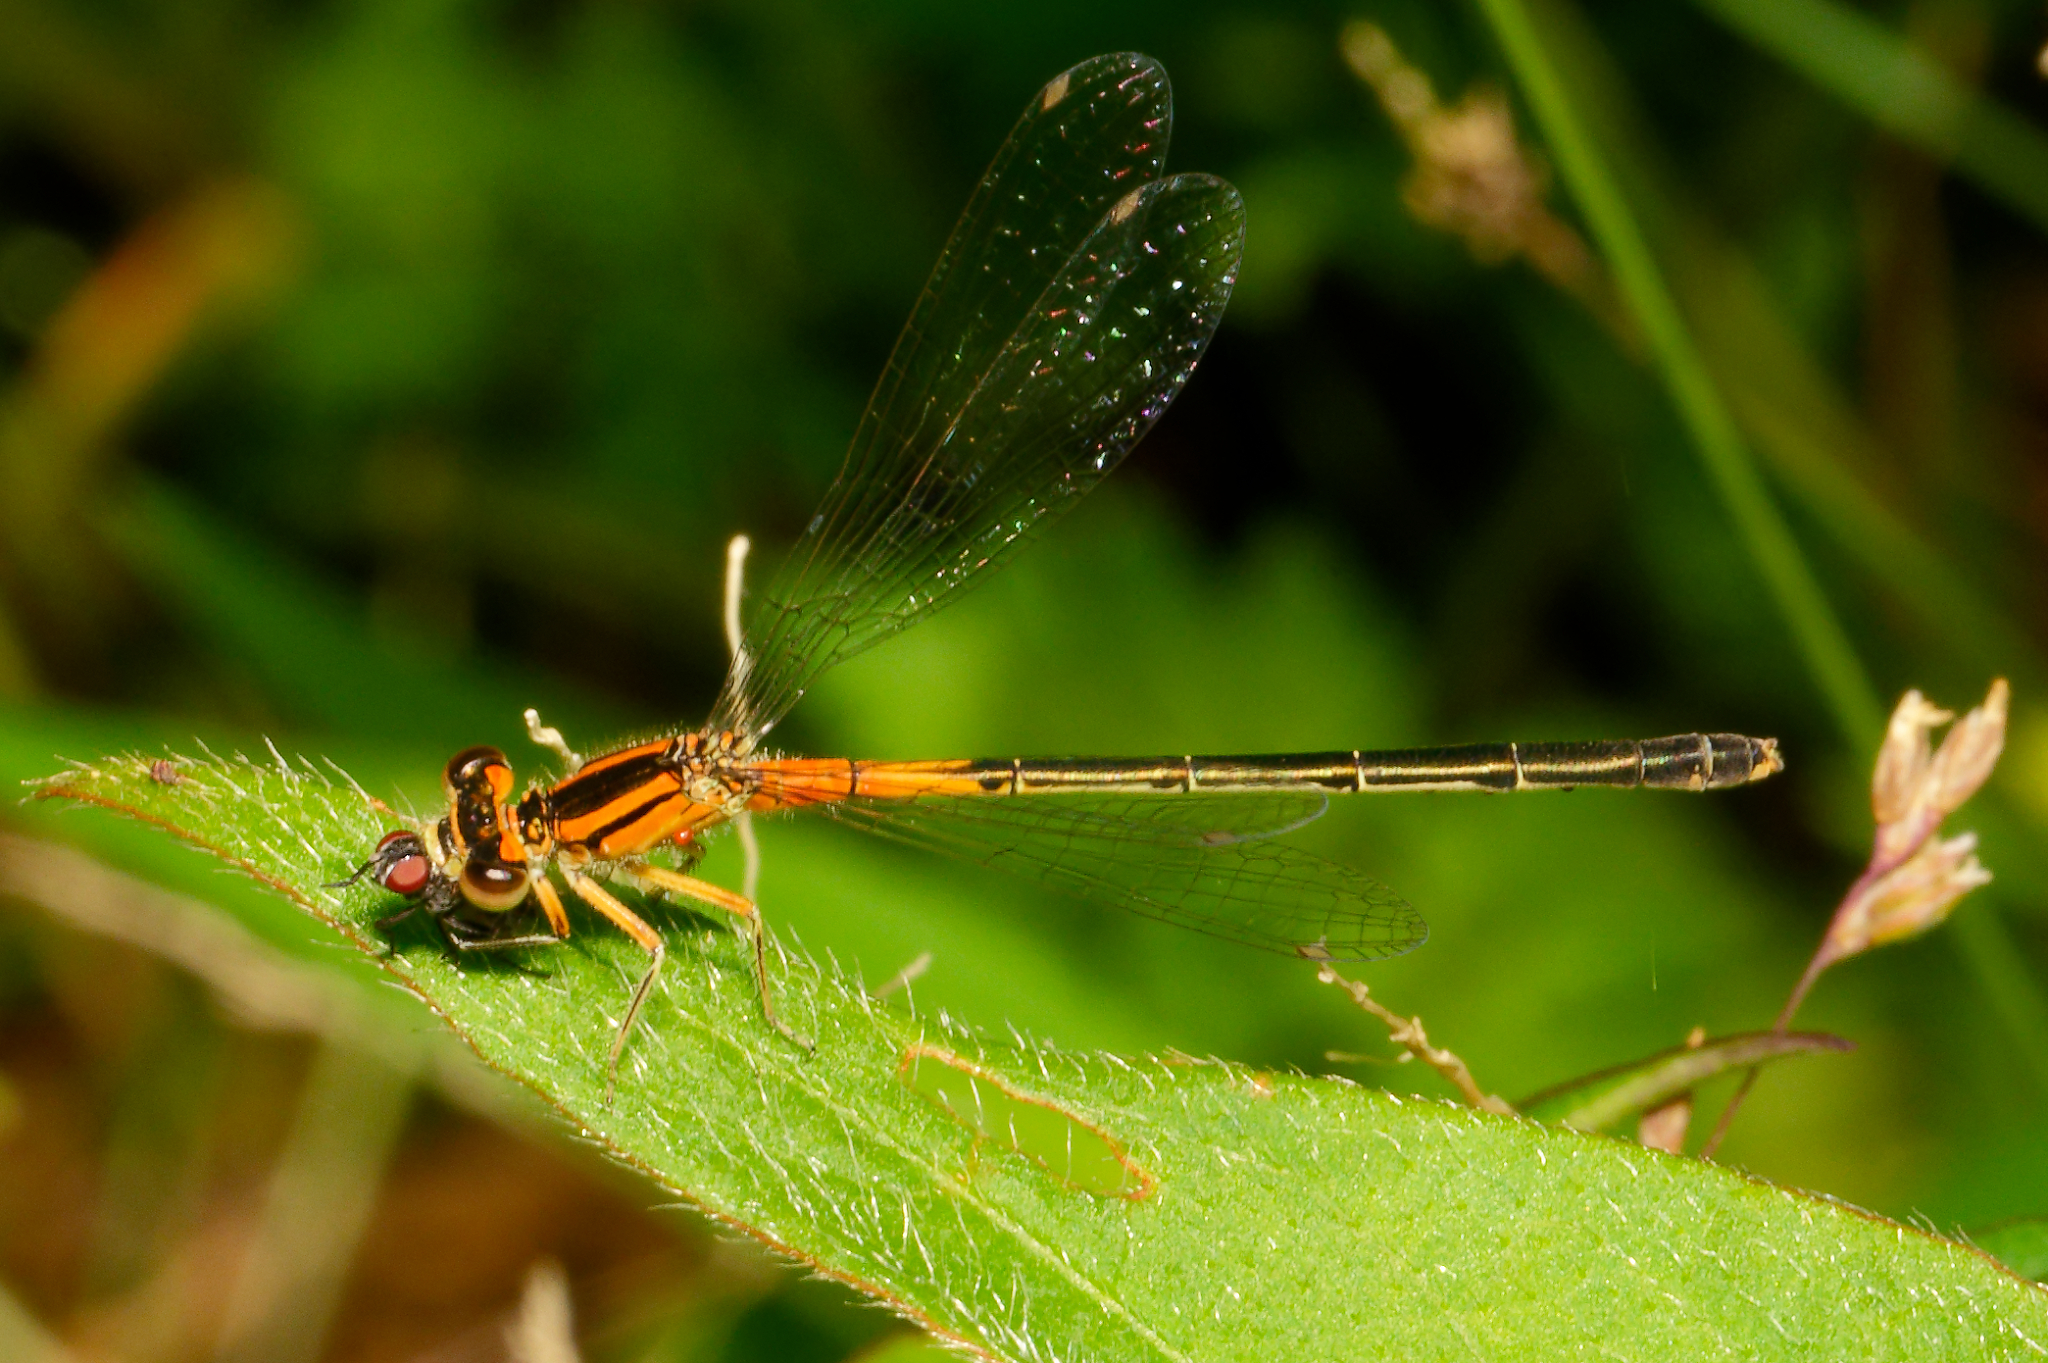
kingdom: Animalia
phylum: Arthropoda
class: Insecta
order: Odonata
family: Coenagrionidae
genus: Ischnura
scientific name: Ischnura verticalis
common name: Eastern forktail
